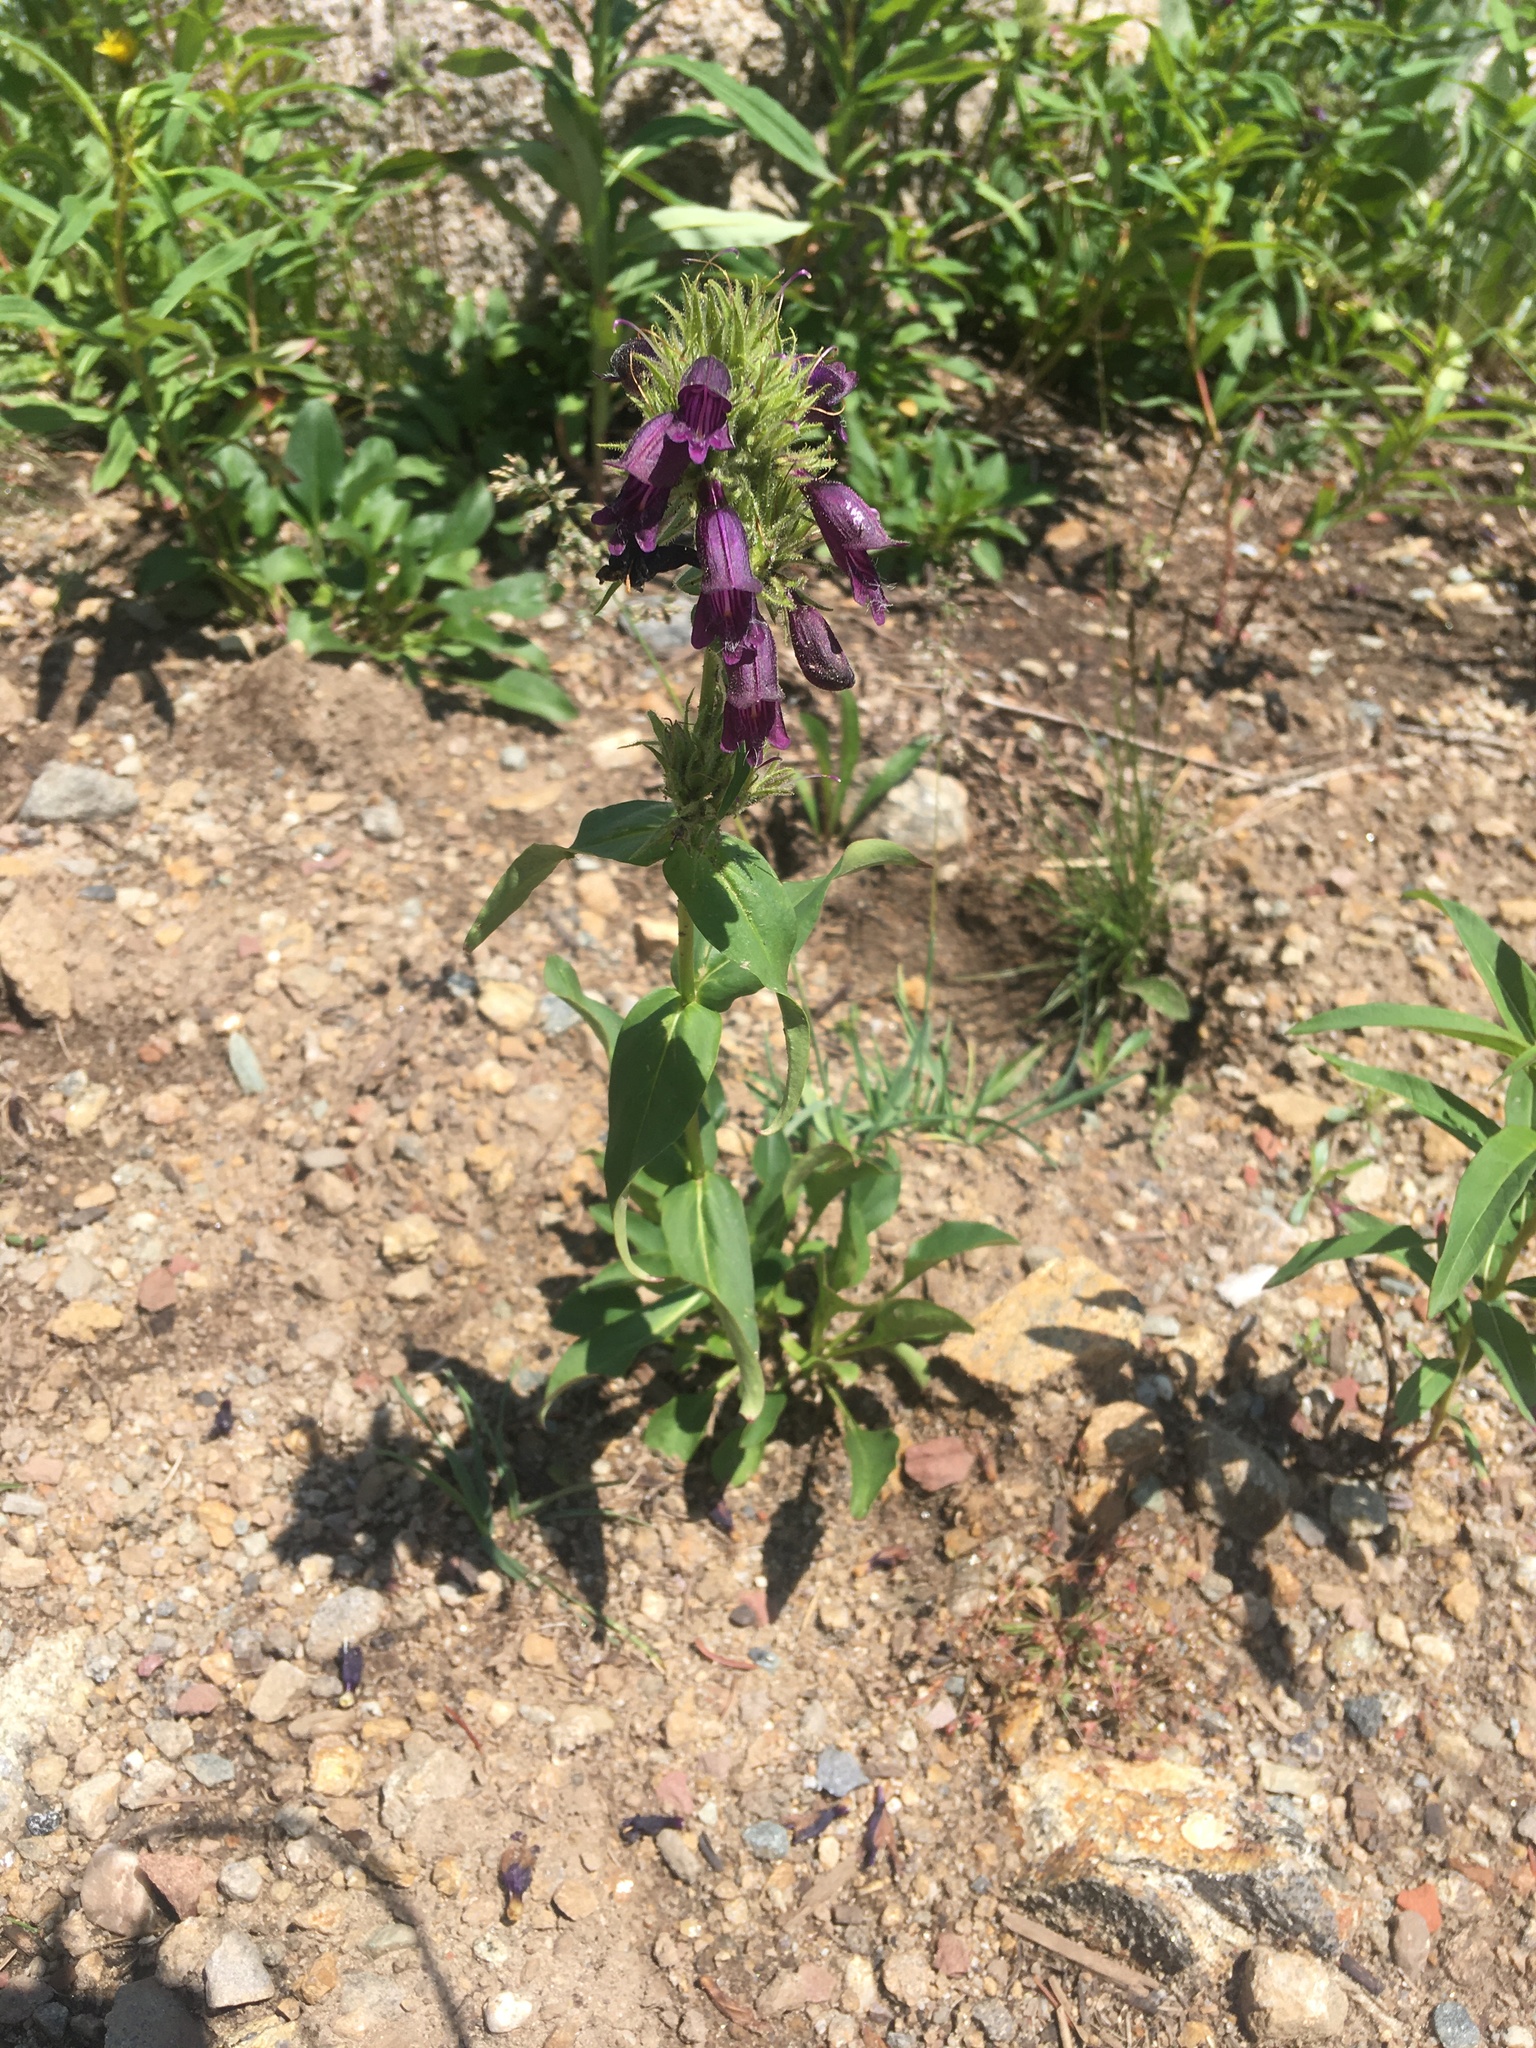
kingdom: Plantae
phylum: Tracheophyta
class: Magnoliopsida
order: Lamiales
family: Plantaginaceae
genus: Penstemon
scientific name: Penstemon whippleanus
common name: Whipple's penstemon
